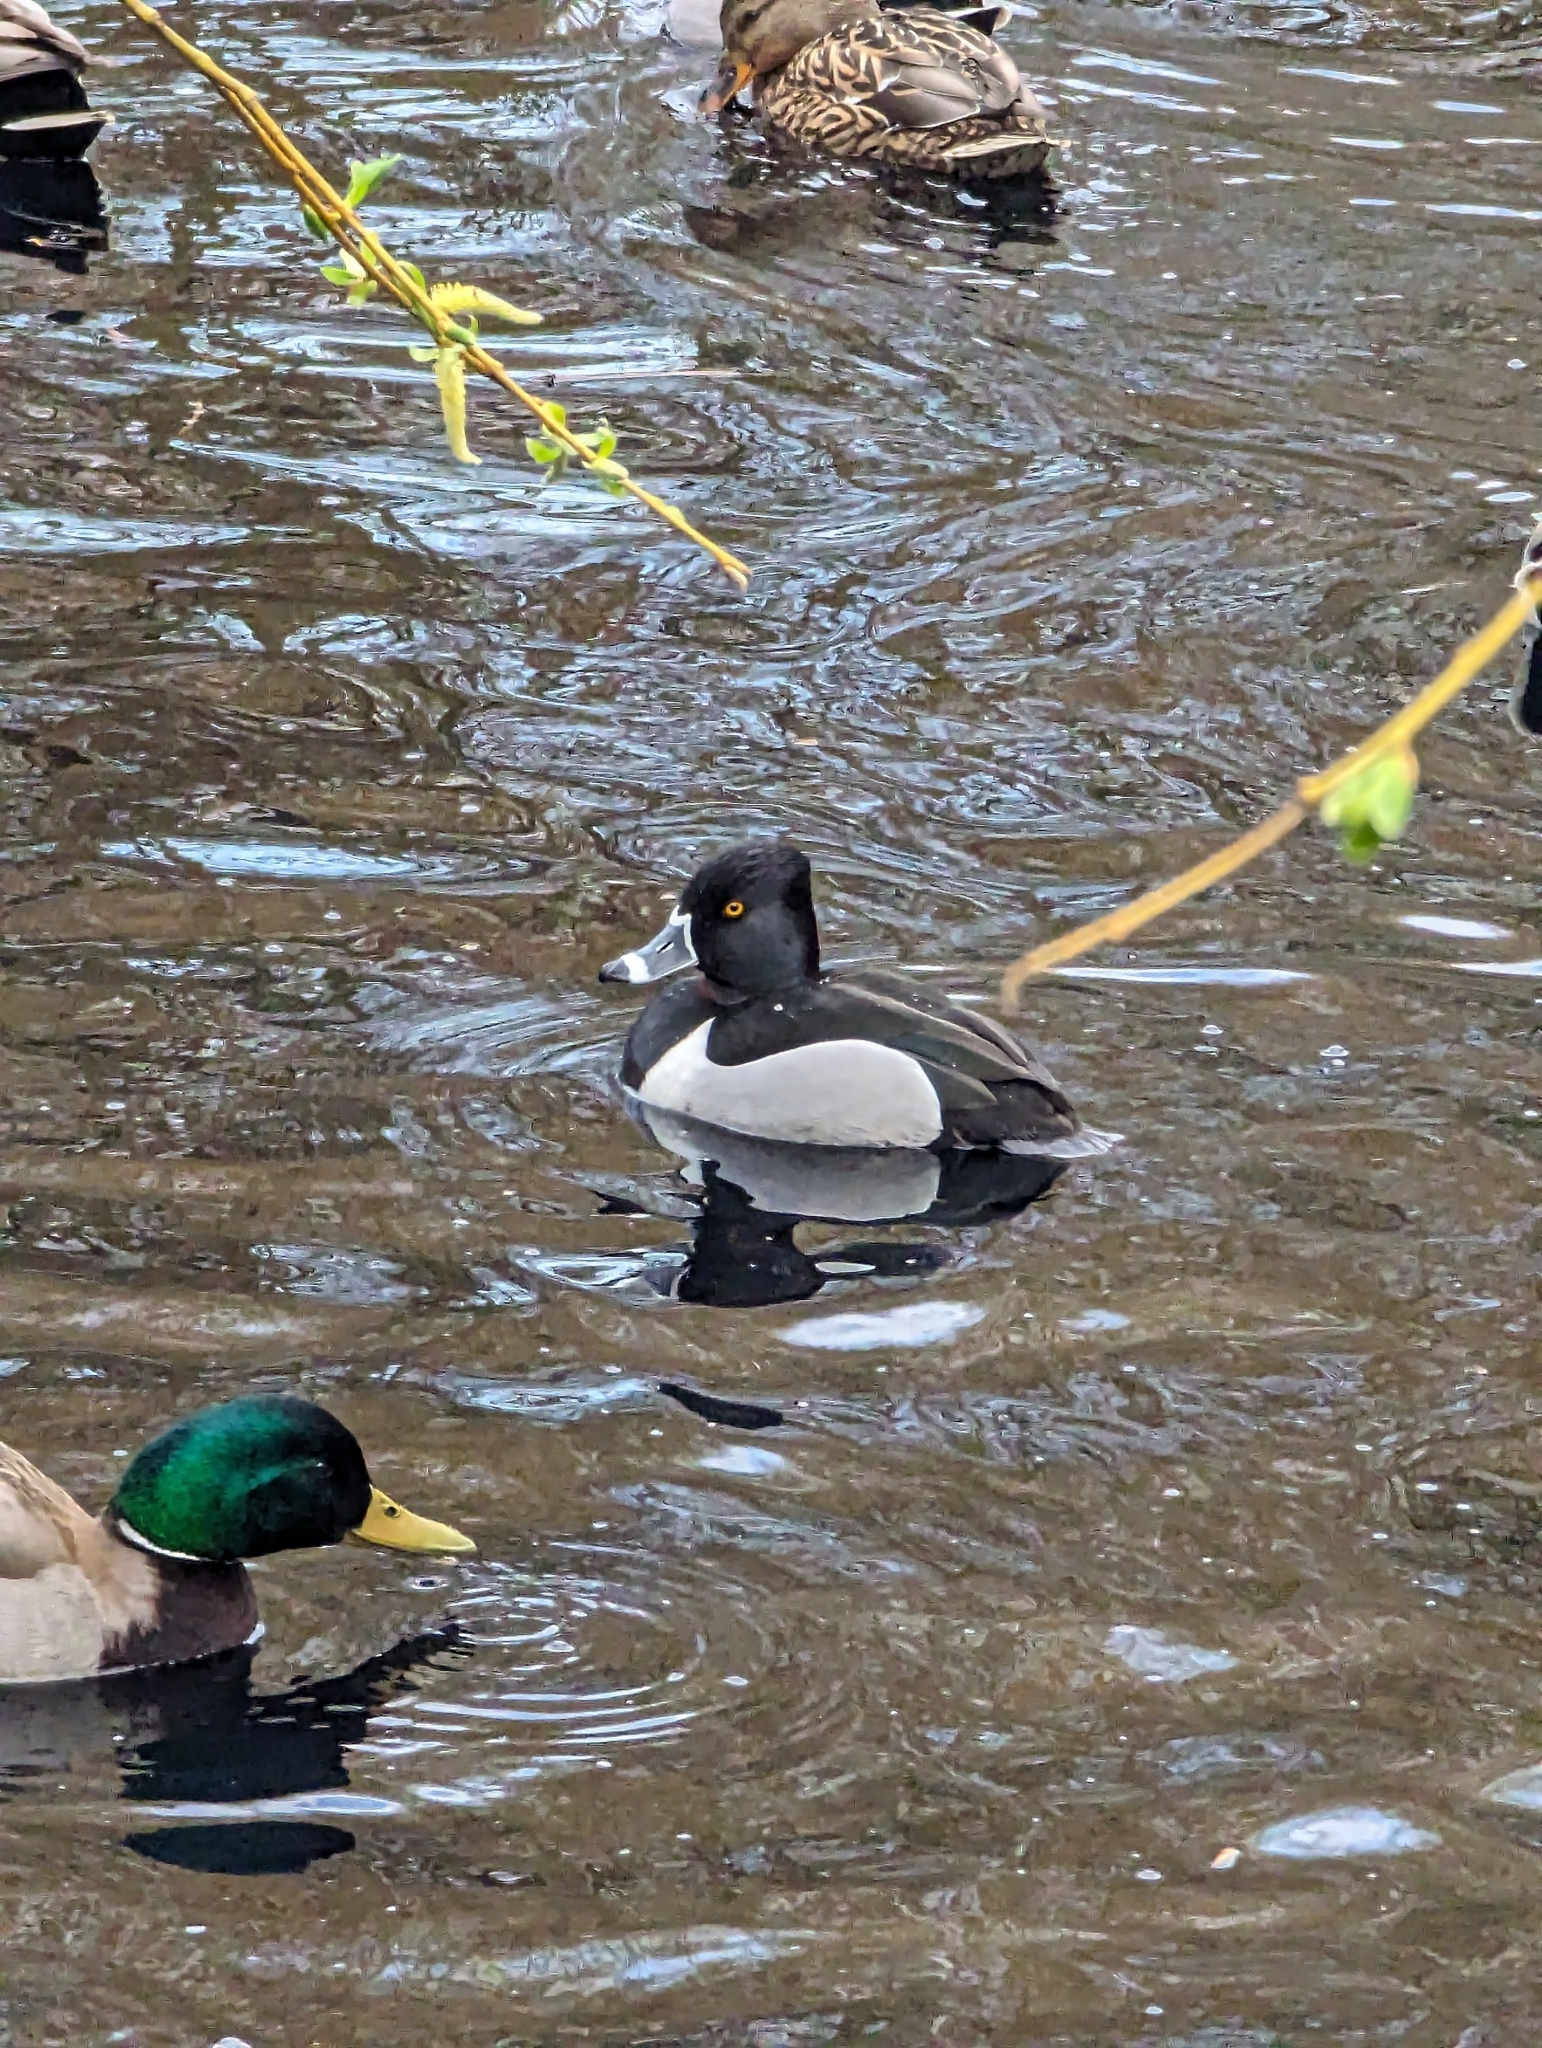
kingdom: Animalia
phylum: Chordata
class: Aves
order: Anseriformes
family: Anatidae
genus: Aythya
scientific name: Aythya collaris
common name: Ring-necked duck
